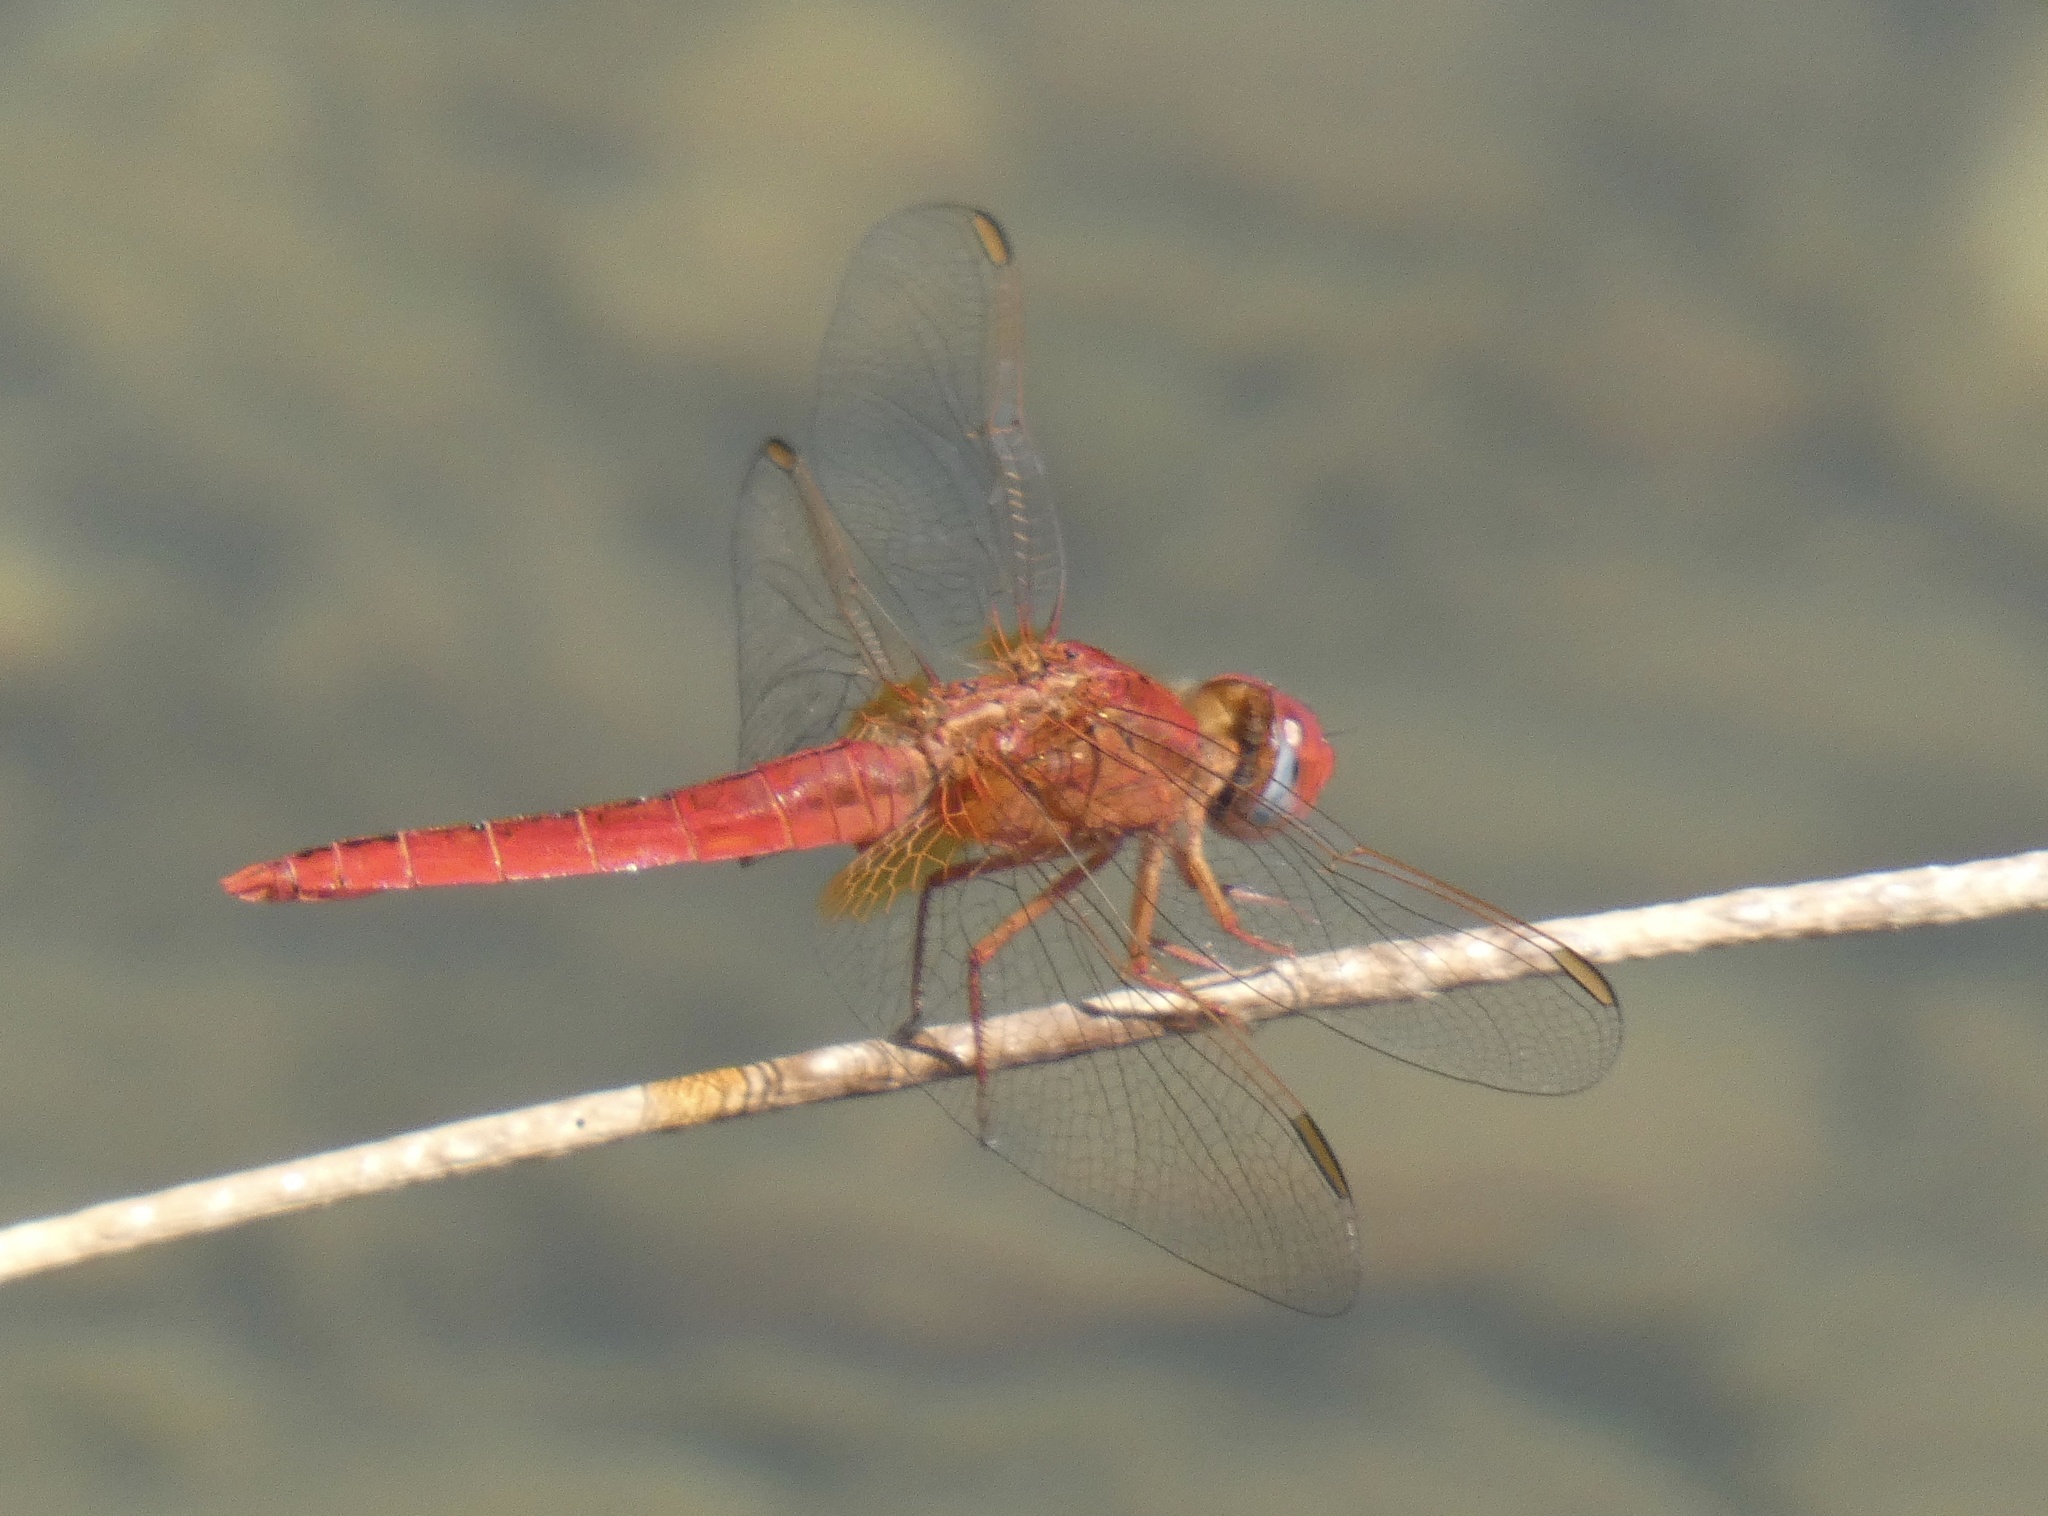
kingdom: Animalia
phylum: Arthropoda
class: Insecta
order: Odonata
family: Libellulidae
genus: Crocothemis
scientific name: Crocothemis erythraea
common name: Scarlet dragonfly
